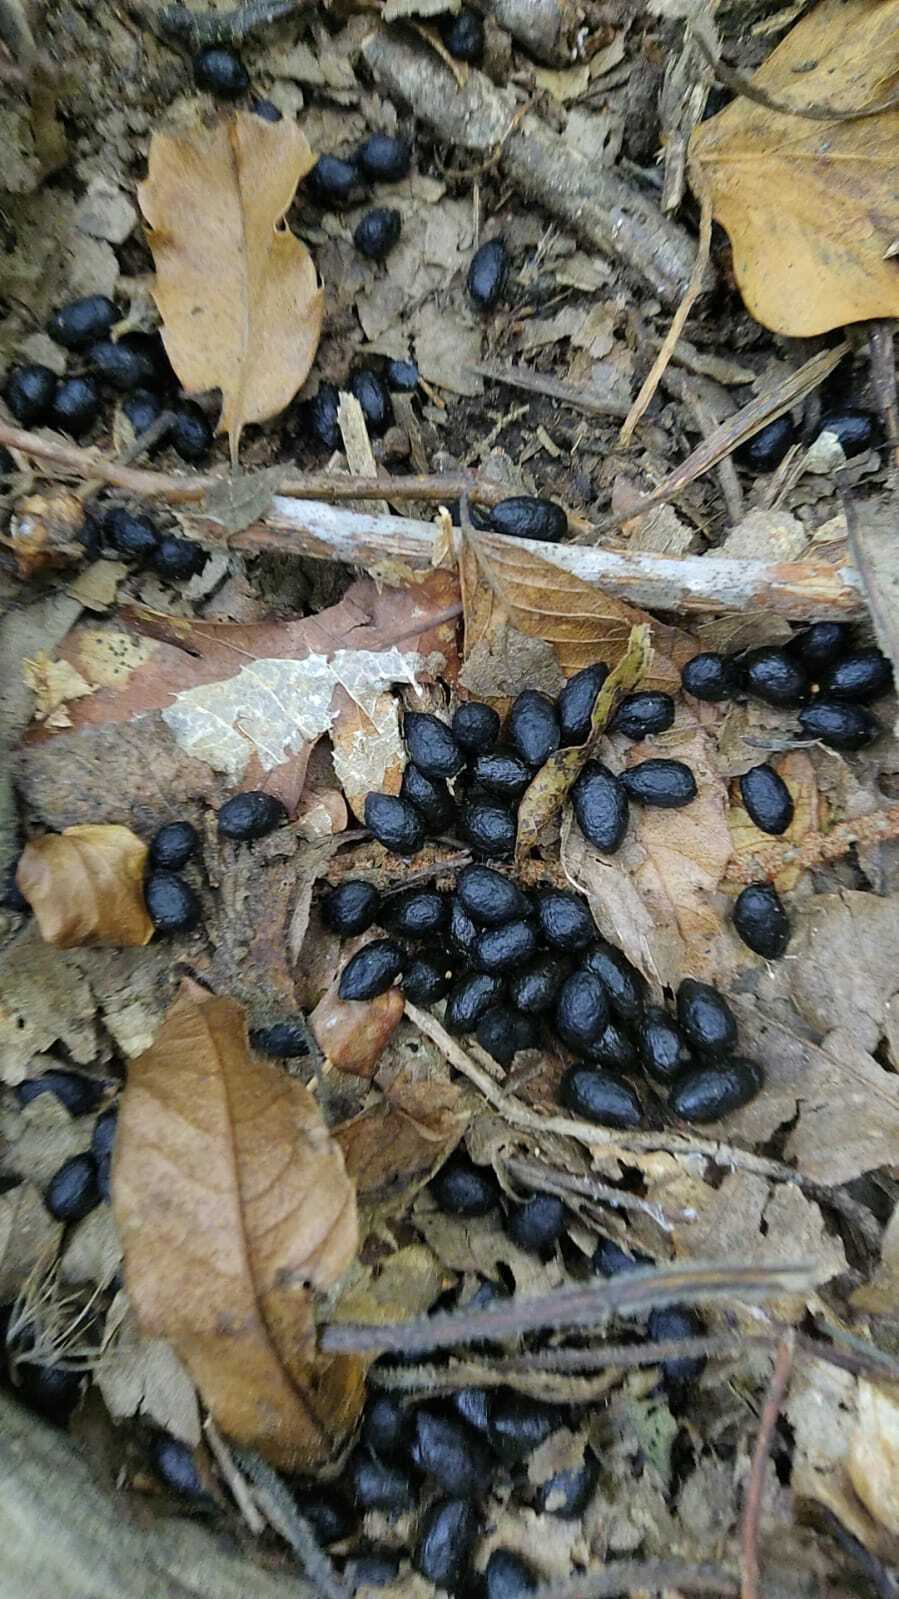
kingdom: Animalia
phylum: Chordata
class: Mammalia
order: Artiodactyla
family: Cervidae
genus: Capreolus
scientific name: Capreolus capreolus
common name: Western roe deer
